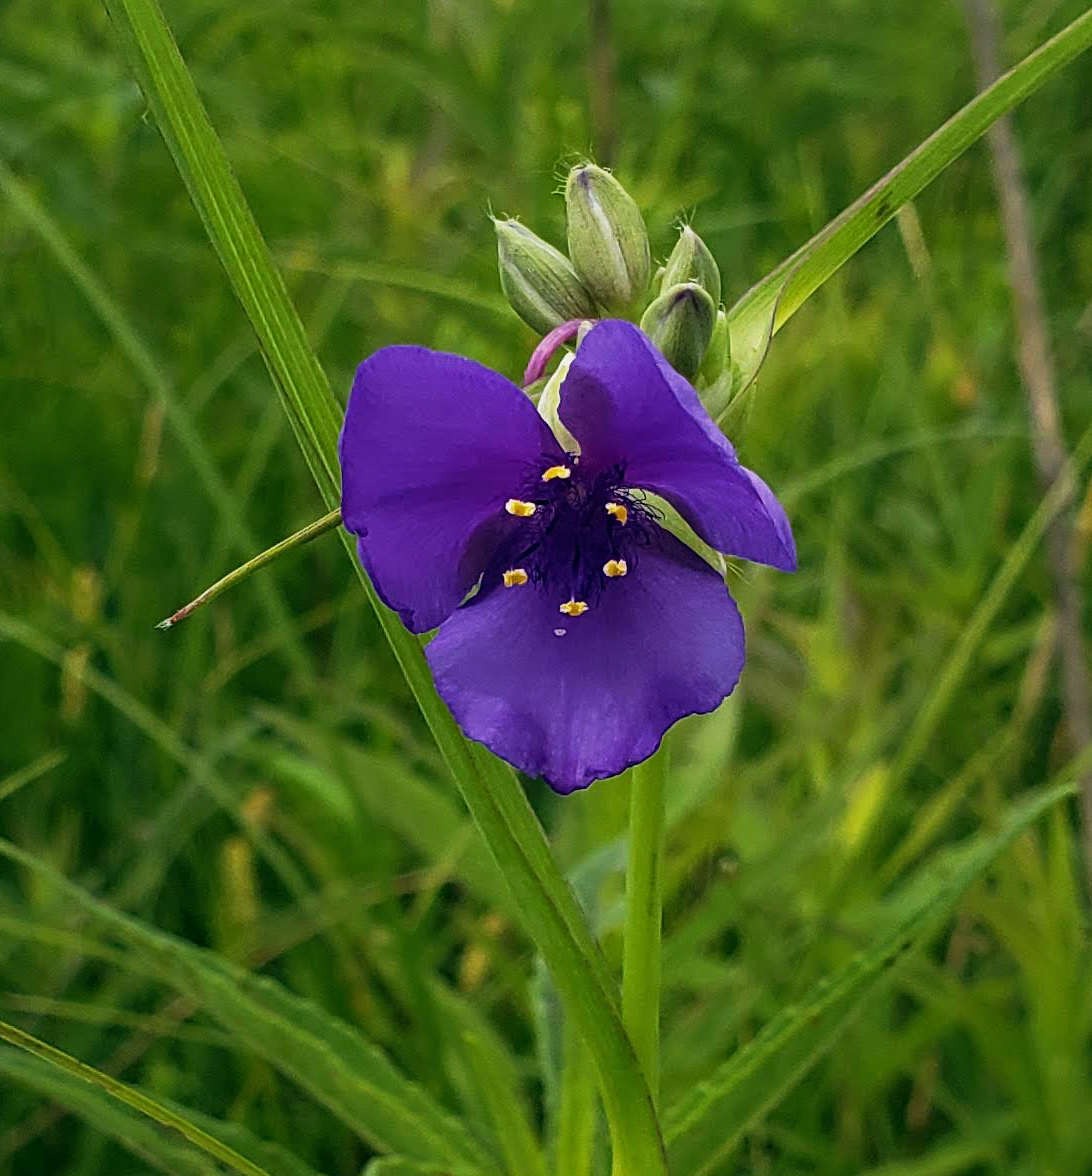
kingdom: Plantae
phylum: Tracheophyta
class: Liliopsida
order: Commelinales
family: Commelinaceae
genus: Tradescantia
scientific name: Tradescantia ohiensis
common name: Ohio spiderwort
